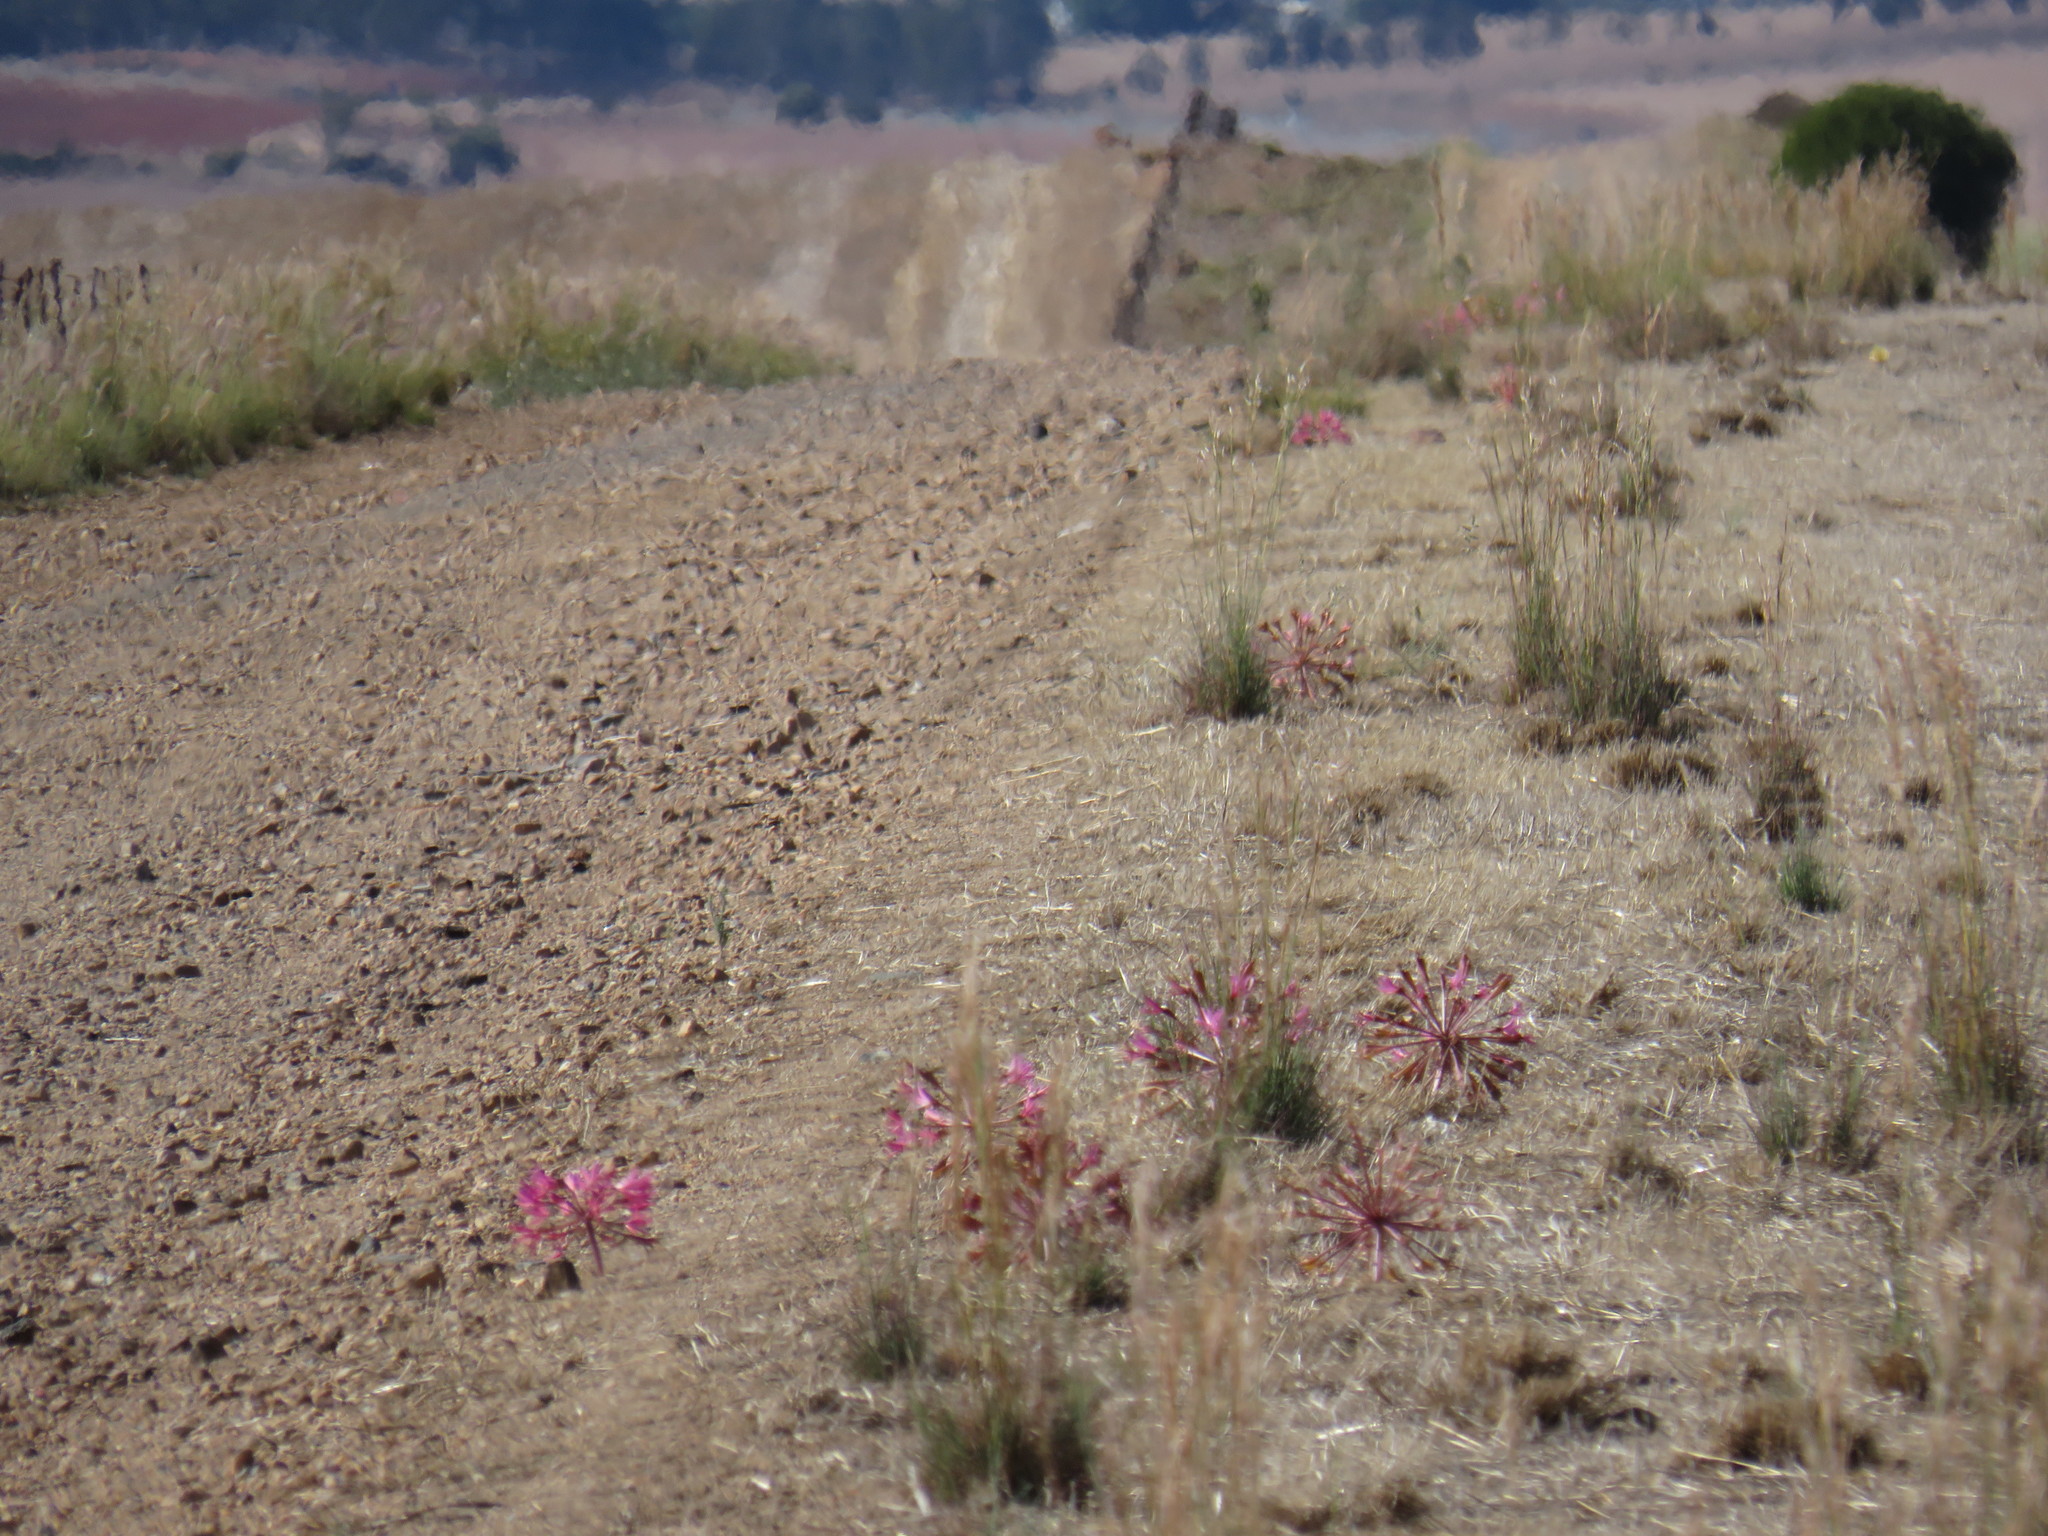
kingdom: Plantae
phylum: Tracheophyta
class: Liliopsida
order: Asparagales
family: Amaryllidaceae
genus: Brunsvigia
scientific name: Brunsvigia bosmaniae
